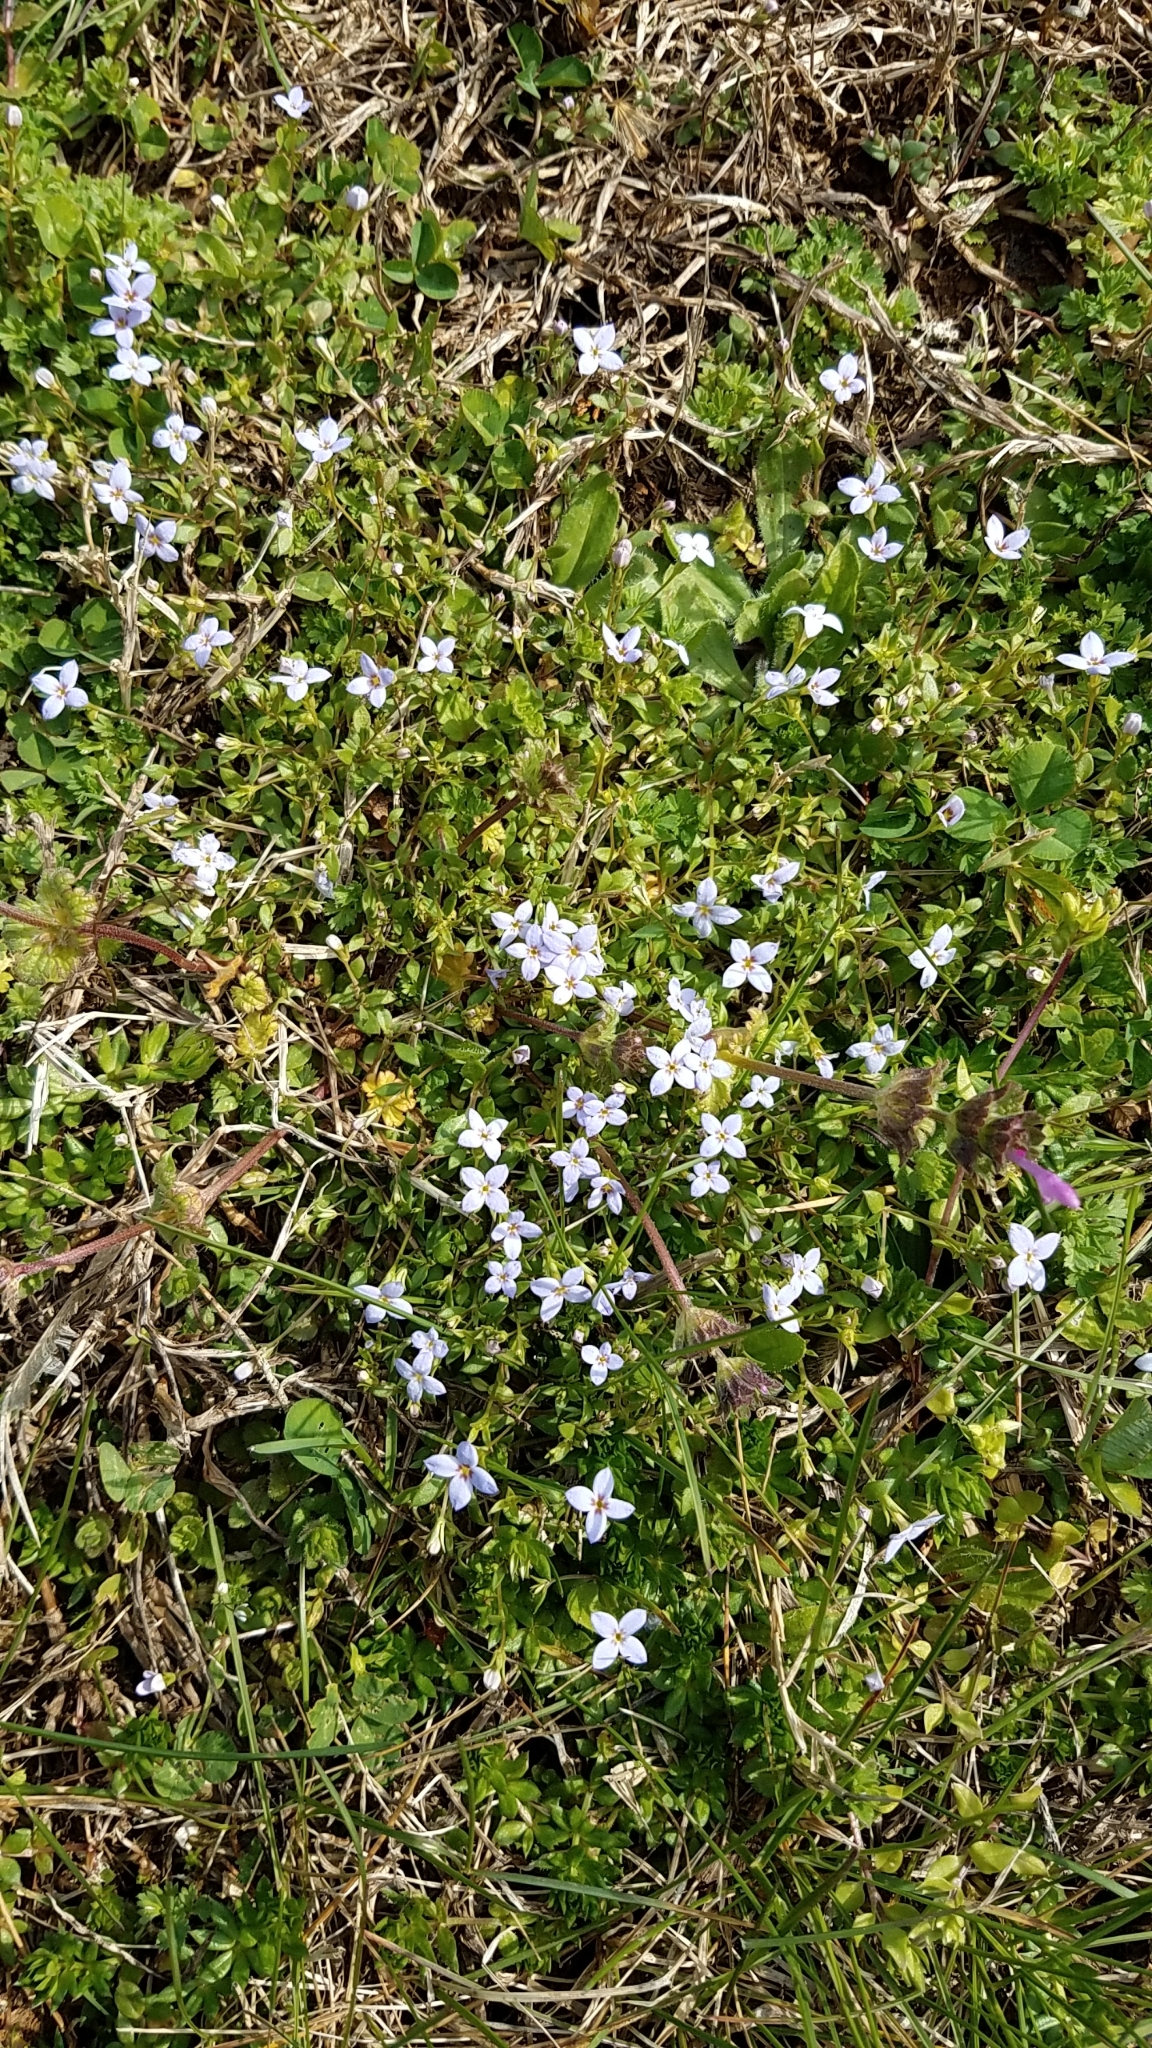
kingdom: Plantae
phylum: Tracheophyta
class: Magnoliopsida
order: Gentianales
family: Rubiaceae
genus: Houstonia
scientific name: Houstonia pusilla
